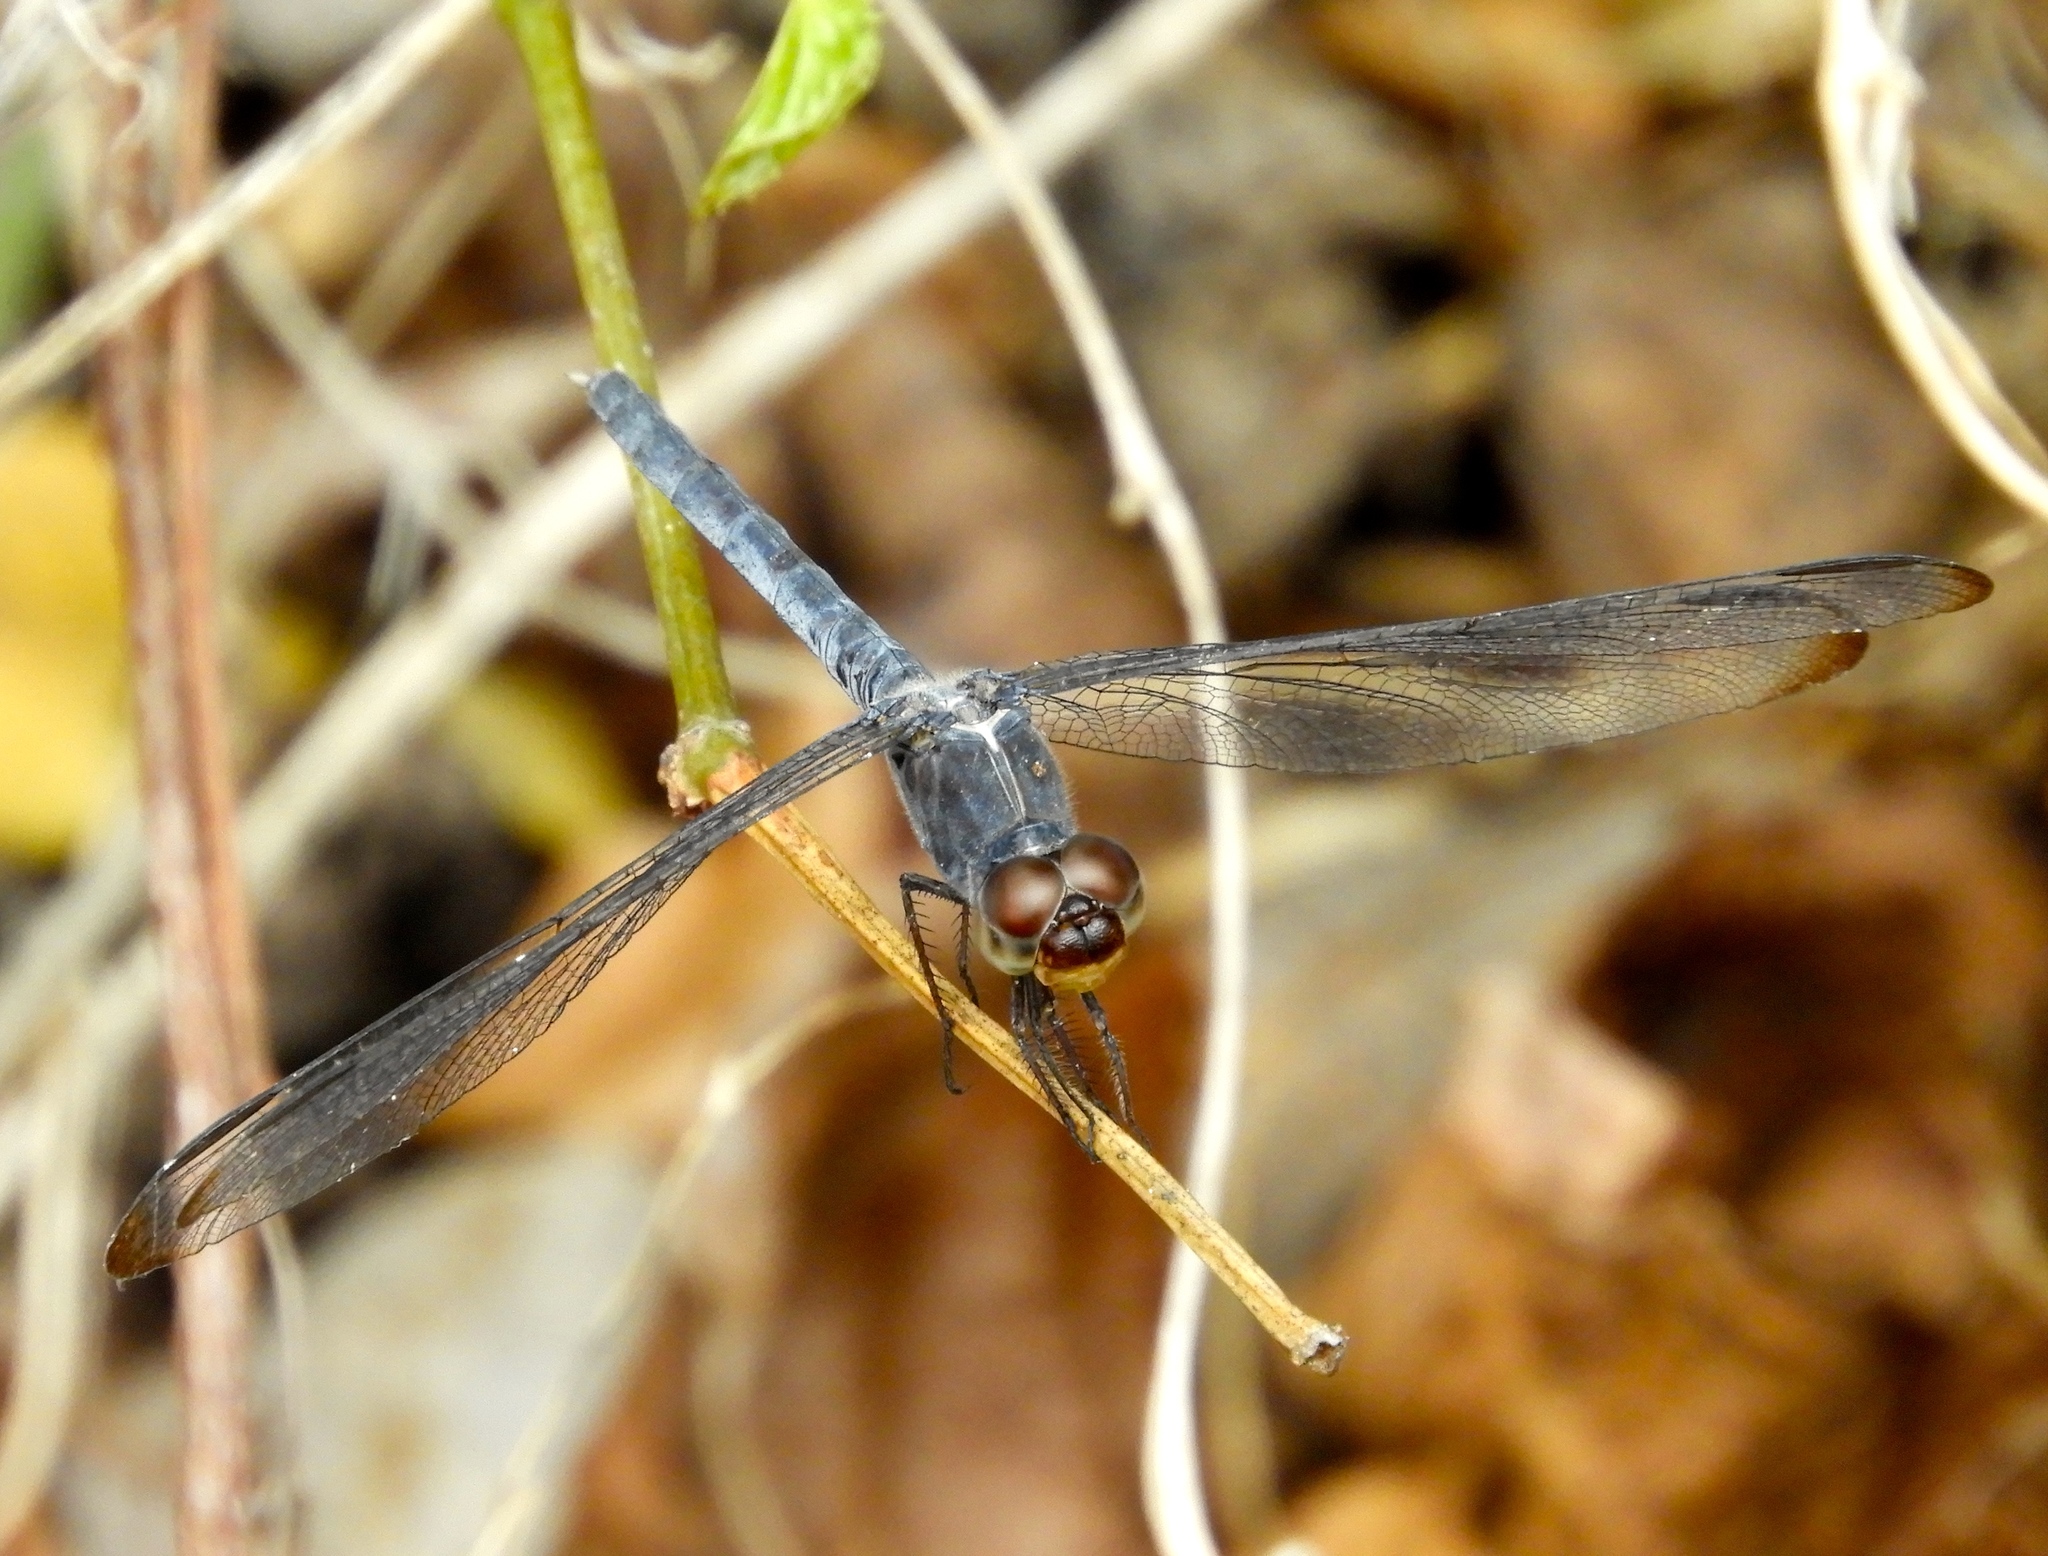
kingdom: Animalia
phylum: Arthropoda
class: Insecta
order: Odonata
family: Libellulidae
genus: Erythrodiplax
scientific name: Erythrodiplax funerea
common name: Black-winged dragonlet
